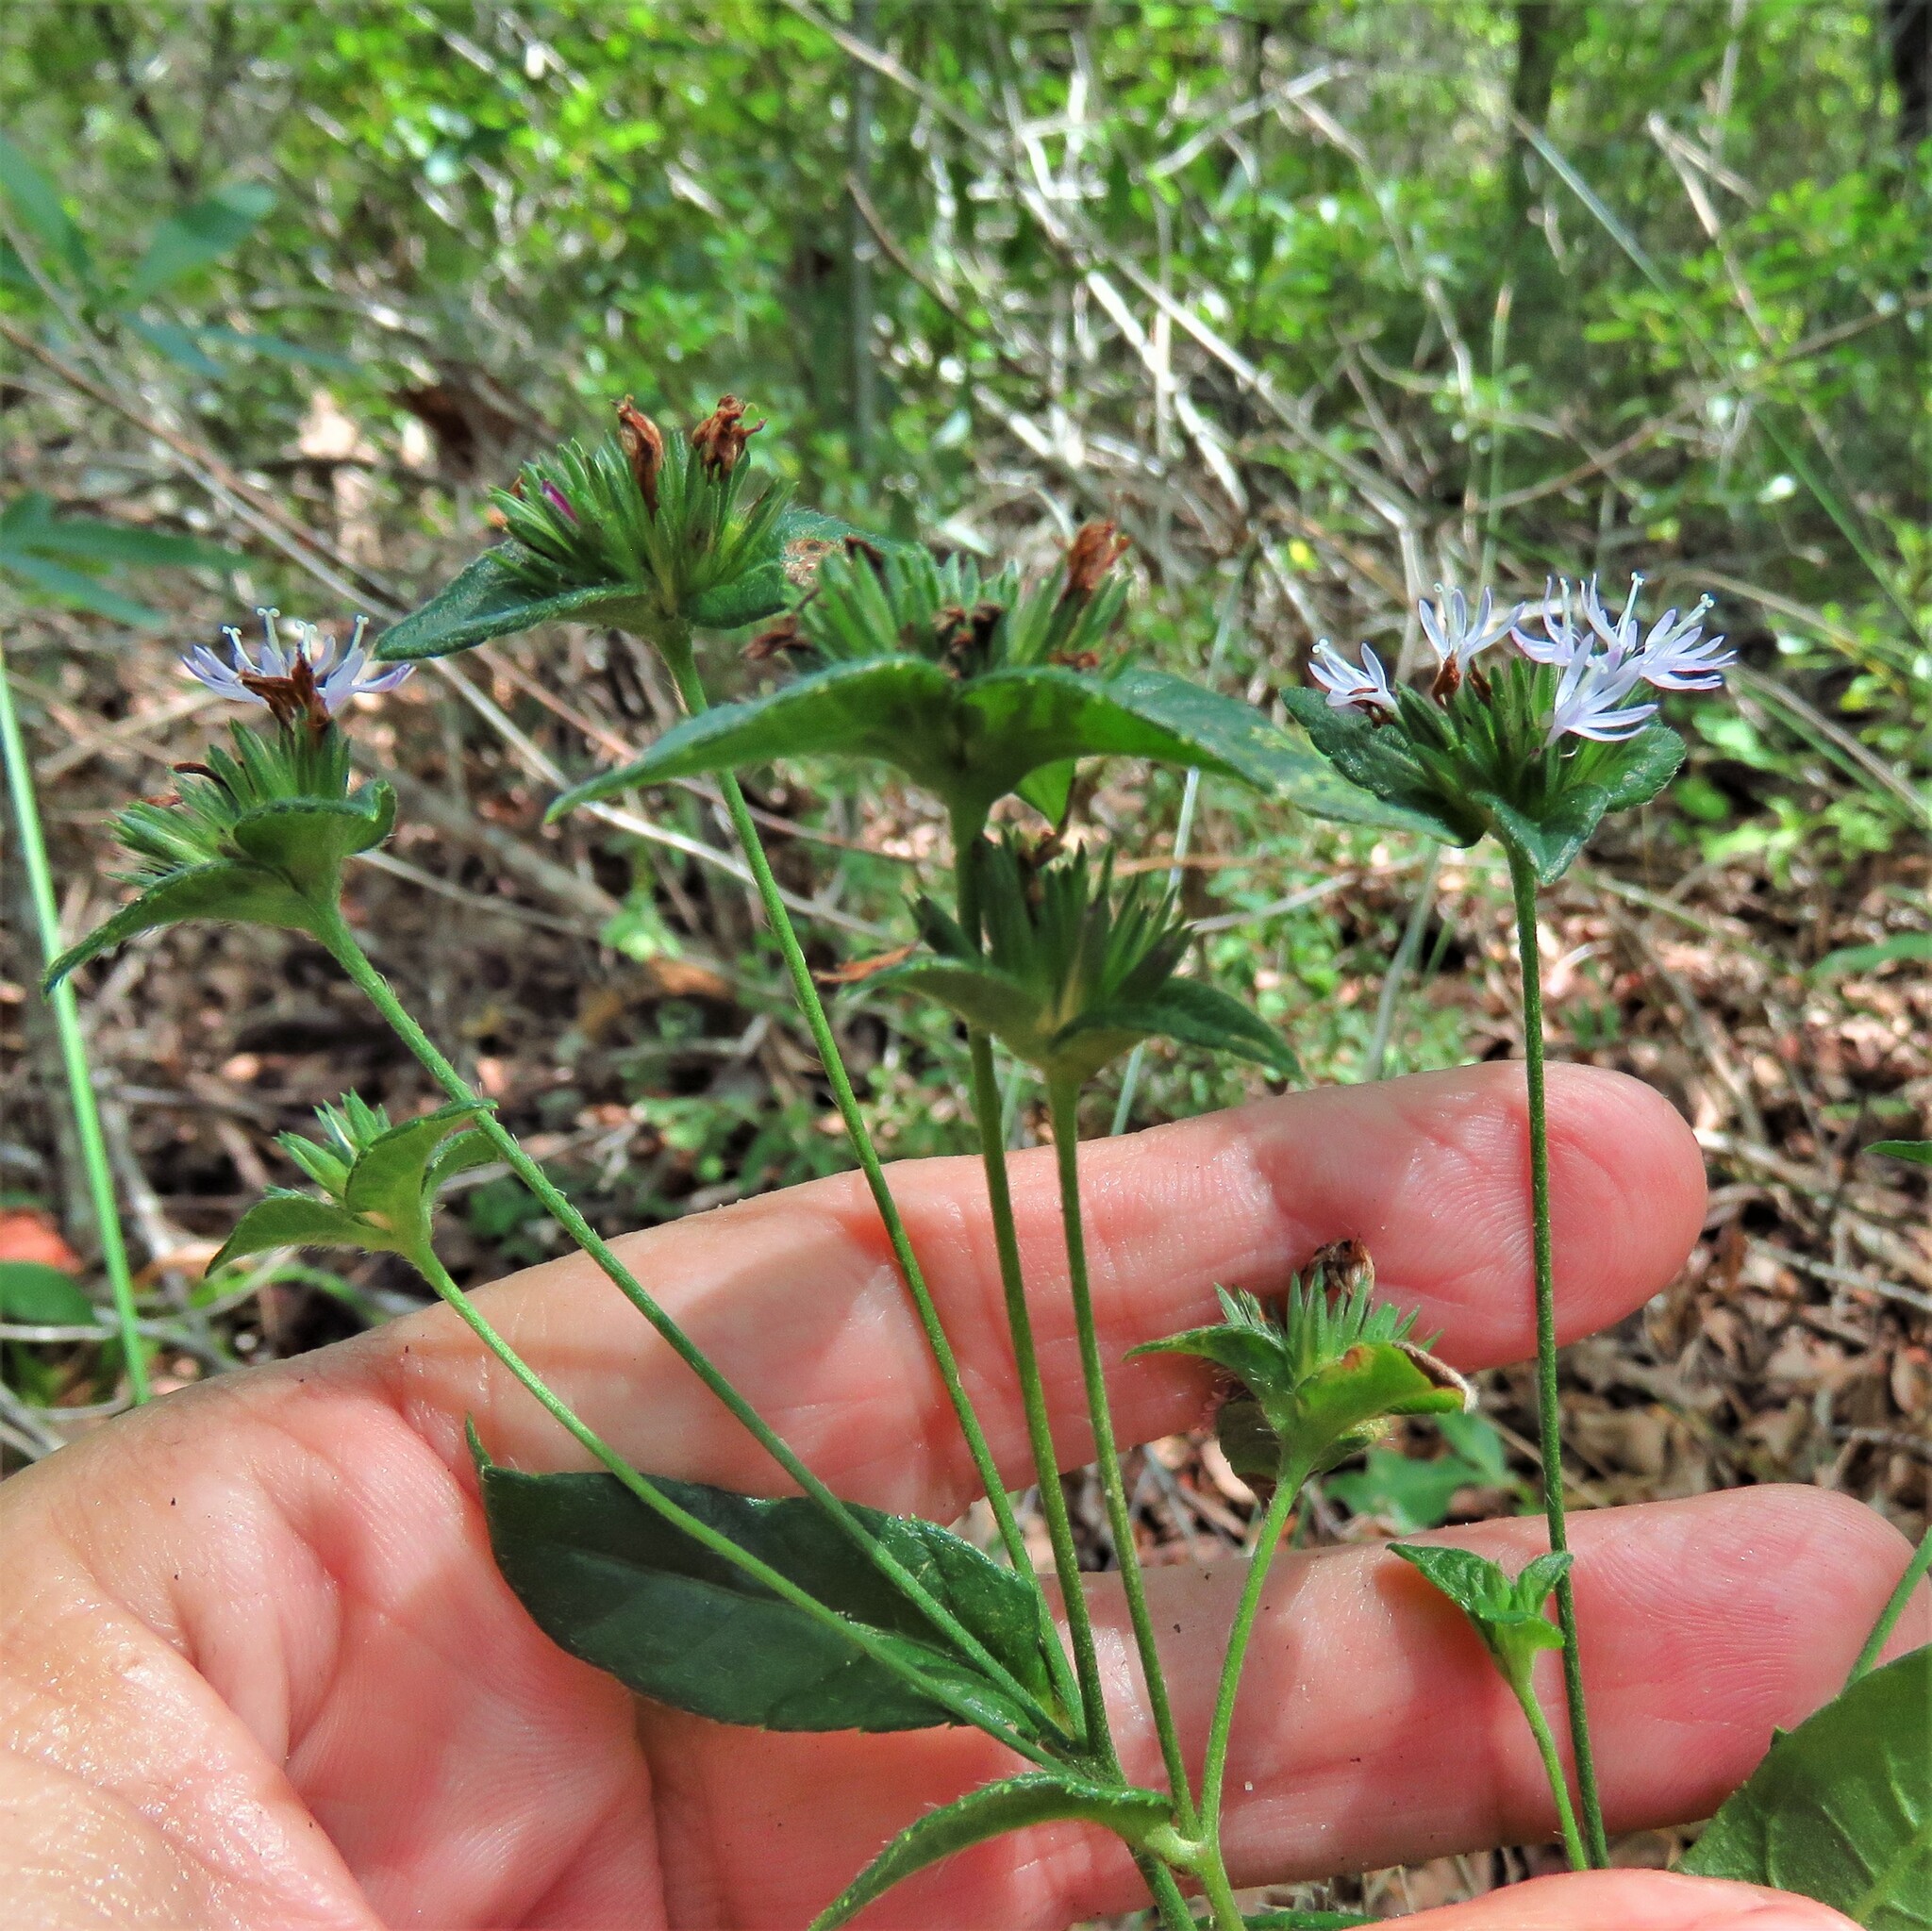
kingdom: Plantae
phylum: Tracheophyta
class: Magnoliopsida
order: Asterales
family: Asteraceae
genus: Elephantopus
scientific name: Elephantopus carolinianus
